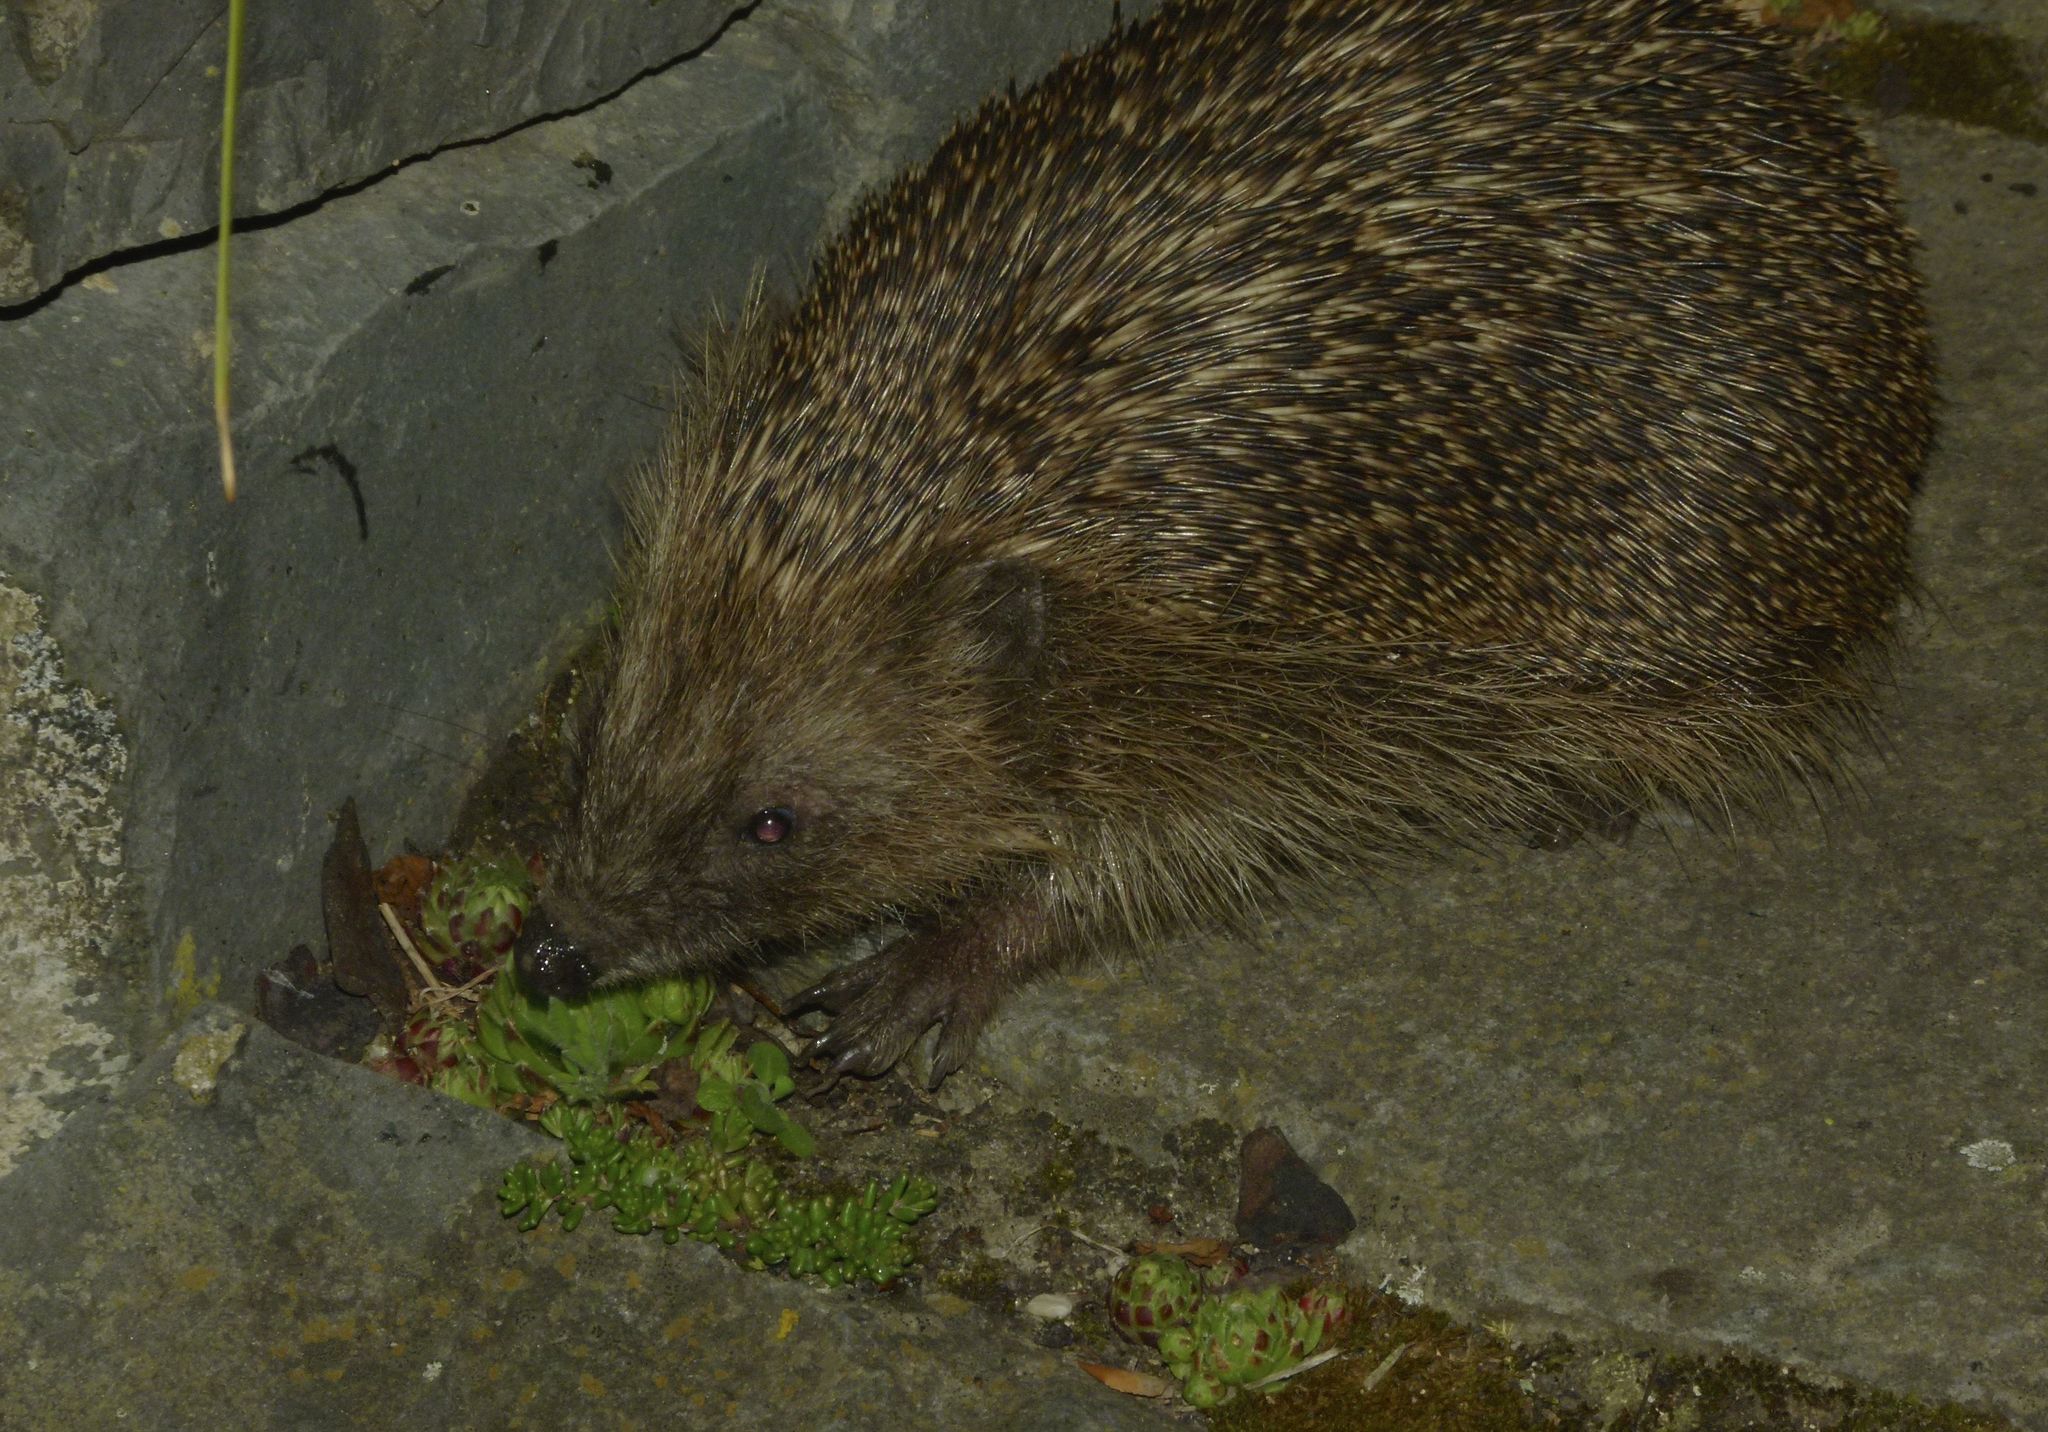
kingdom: Animalia
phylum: Chordata
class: Mammalia
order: Erinaceomorpha
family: Erinaceidae
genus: Erinaceus
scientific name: Erinaceus europaeus
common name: West european hedgehog
